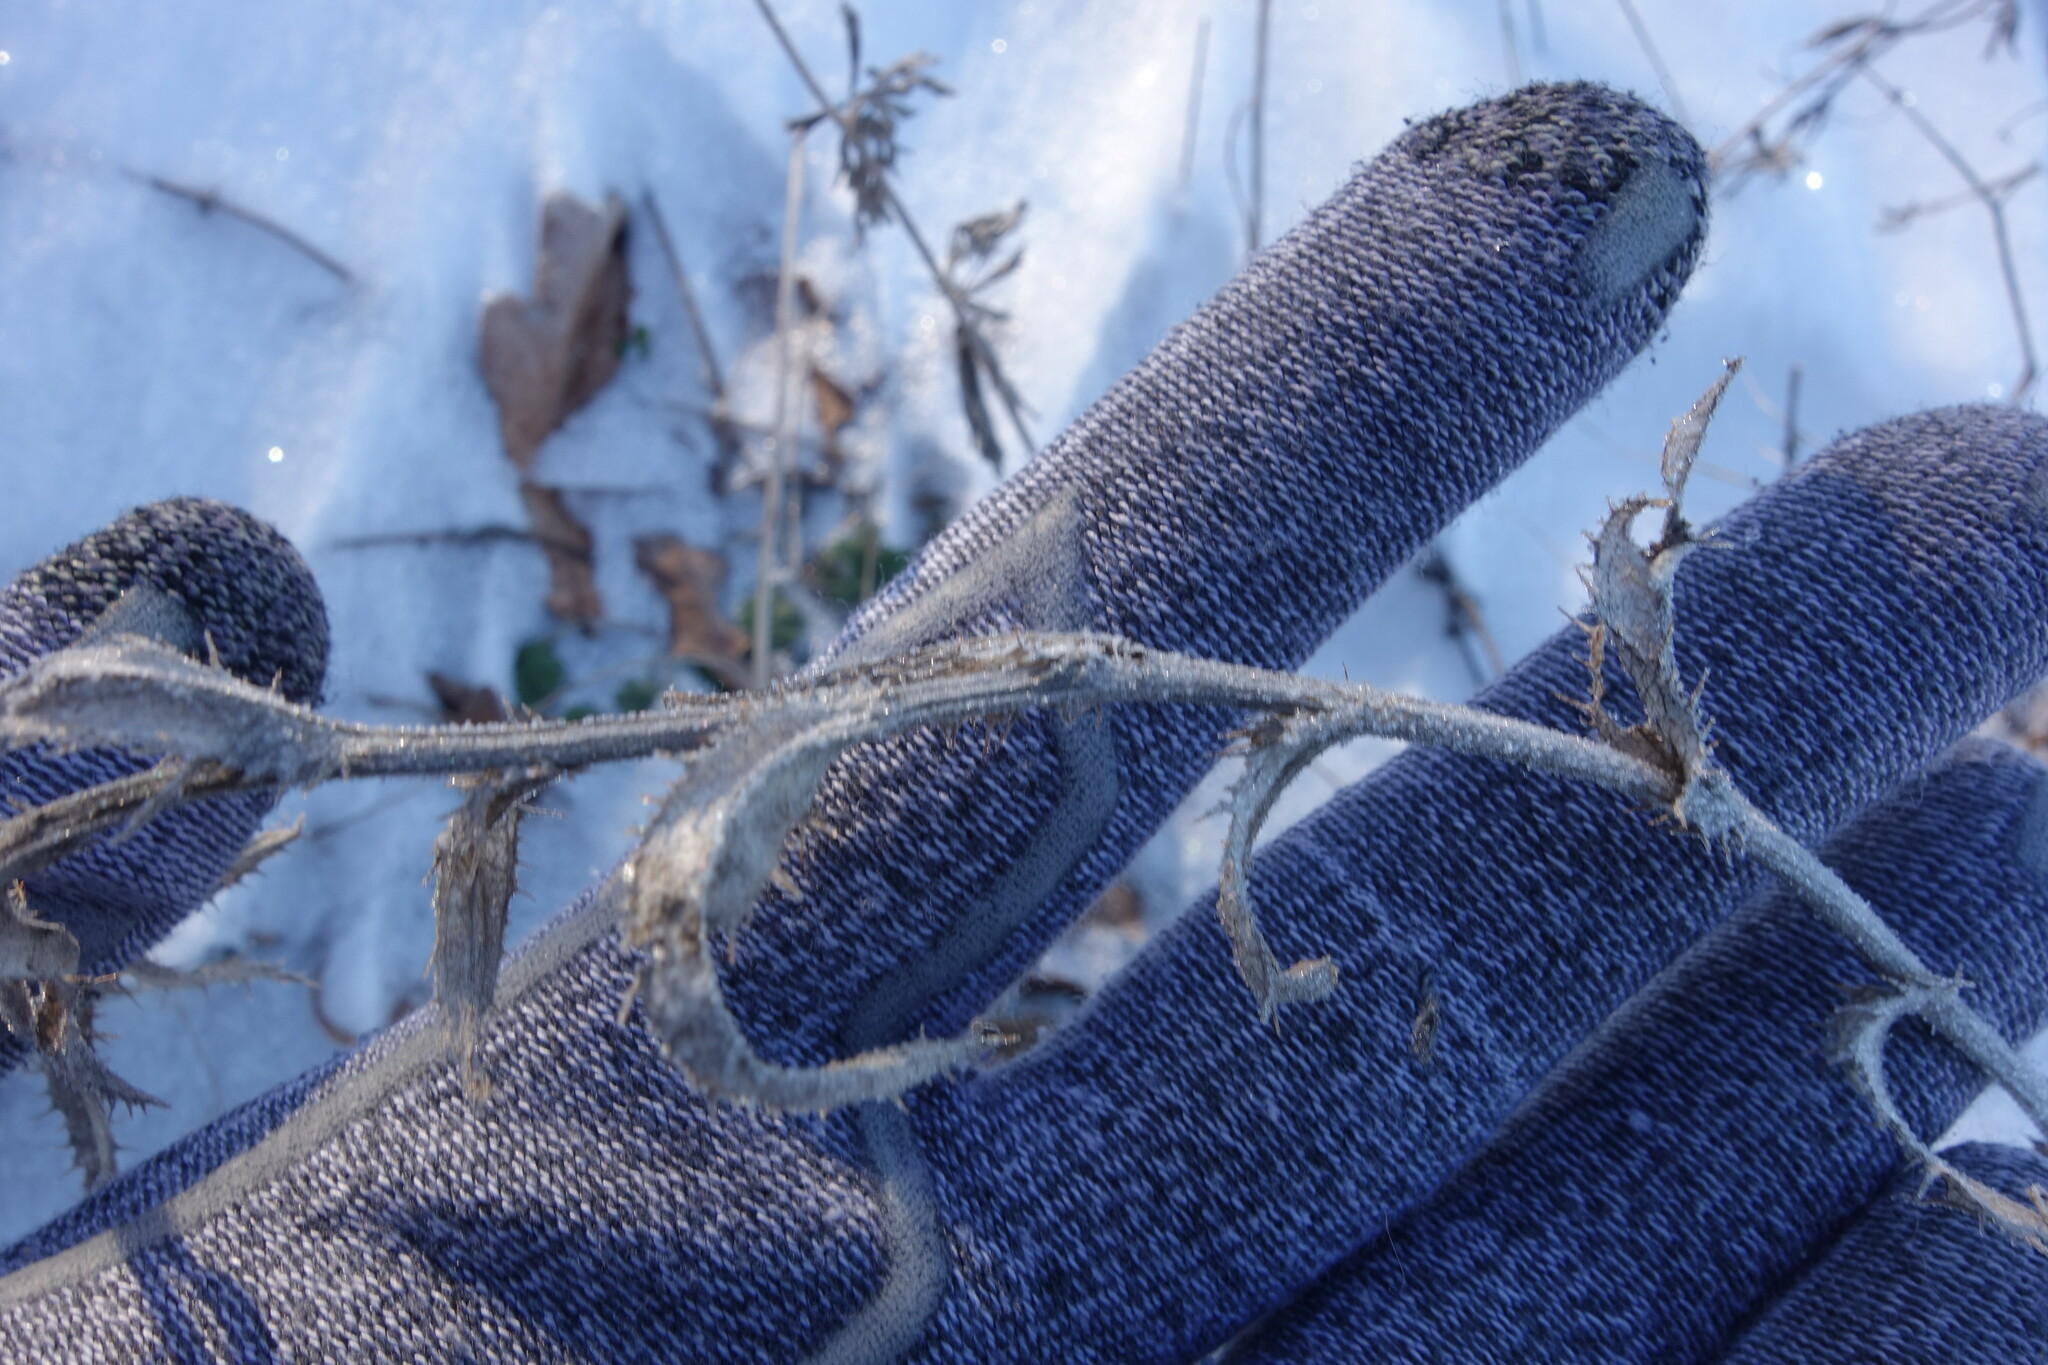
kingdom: Plantae
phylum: Tracheophyta
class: Magnoliopsida
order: Asterales
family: Asteraceae
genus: Carlina
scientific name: Carlina biebersteinii
